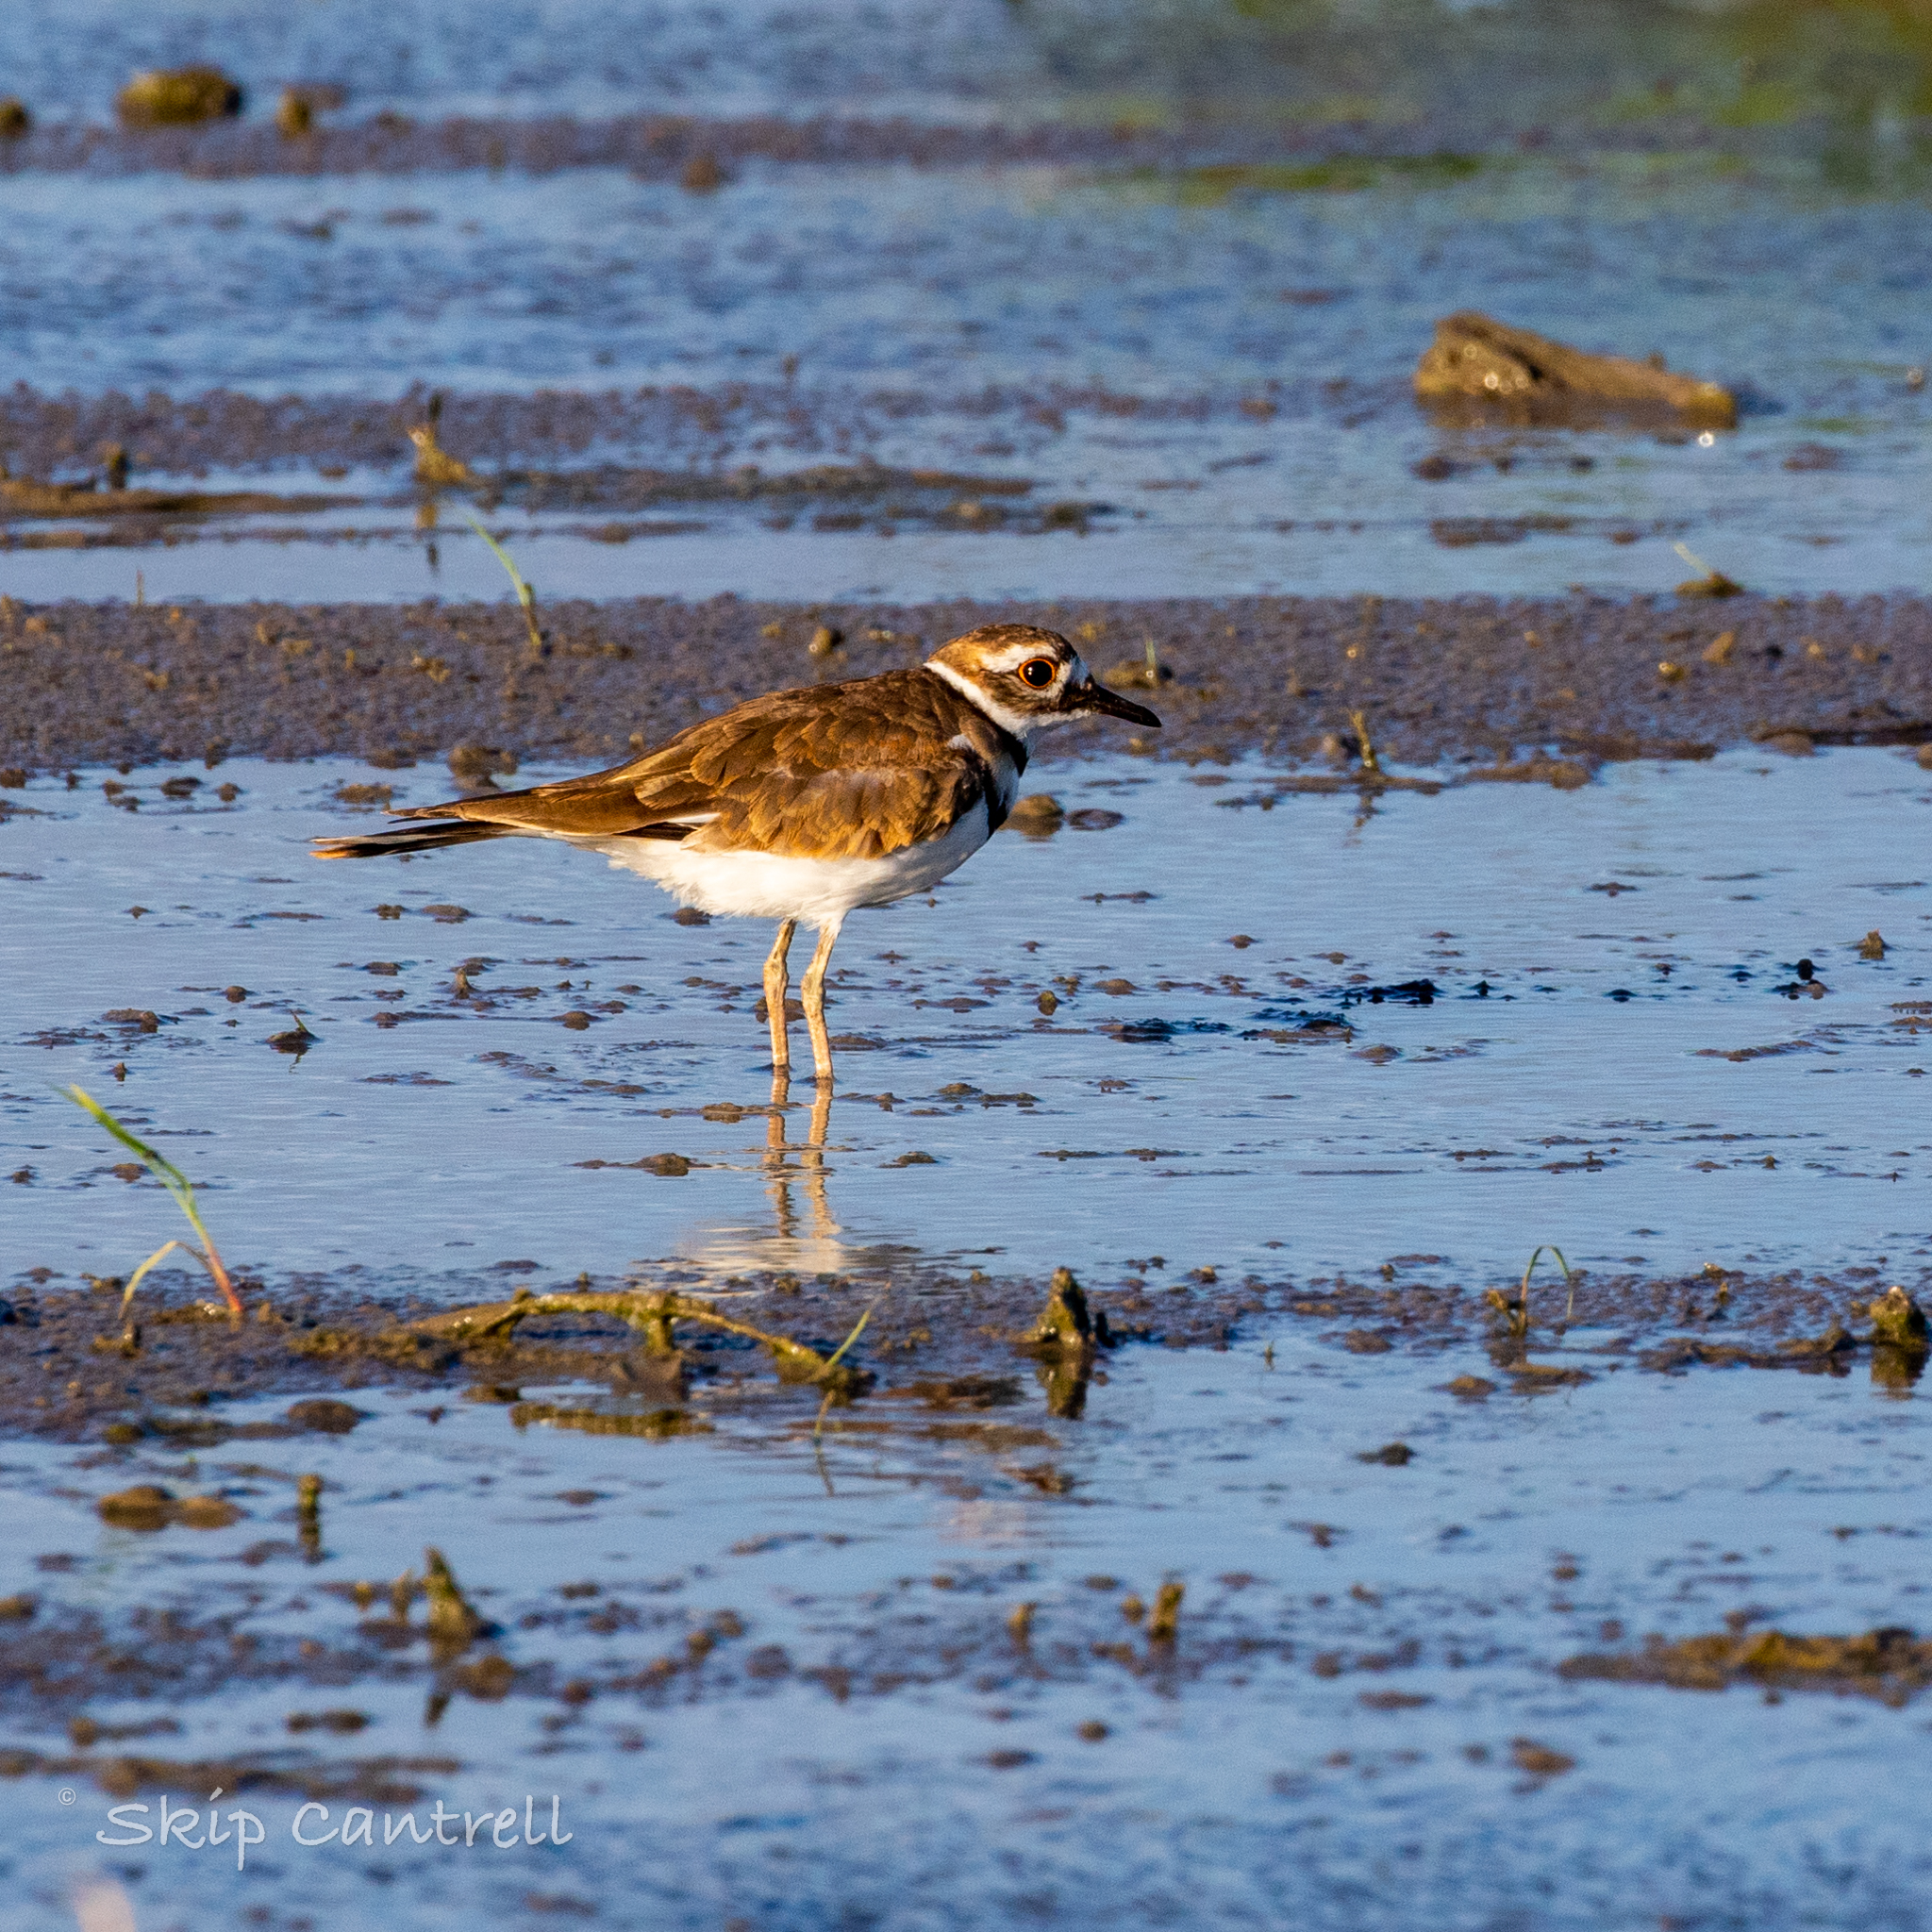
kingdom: Animalia
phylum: Chordata
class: Aves
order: Charadriiformes
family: Charadriidae
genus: Charadrius
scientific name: Charadrius vociferus
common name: Killdeer
